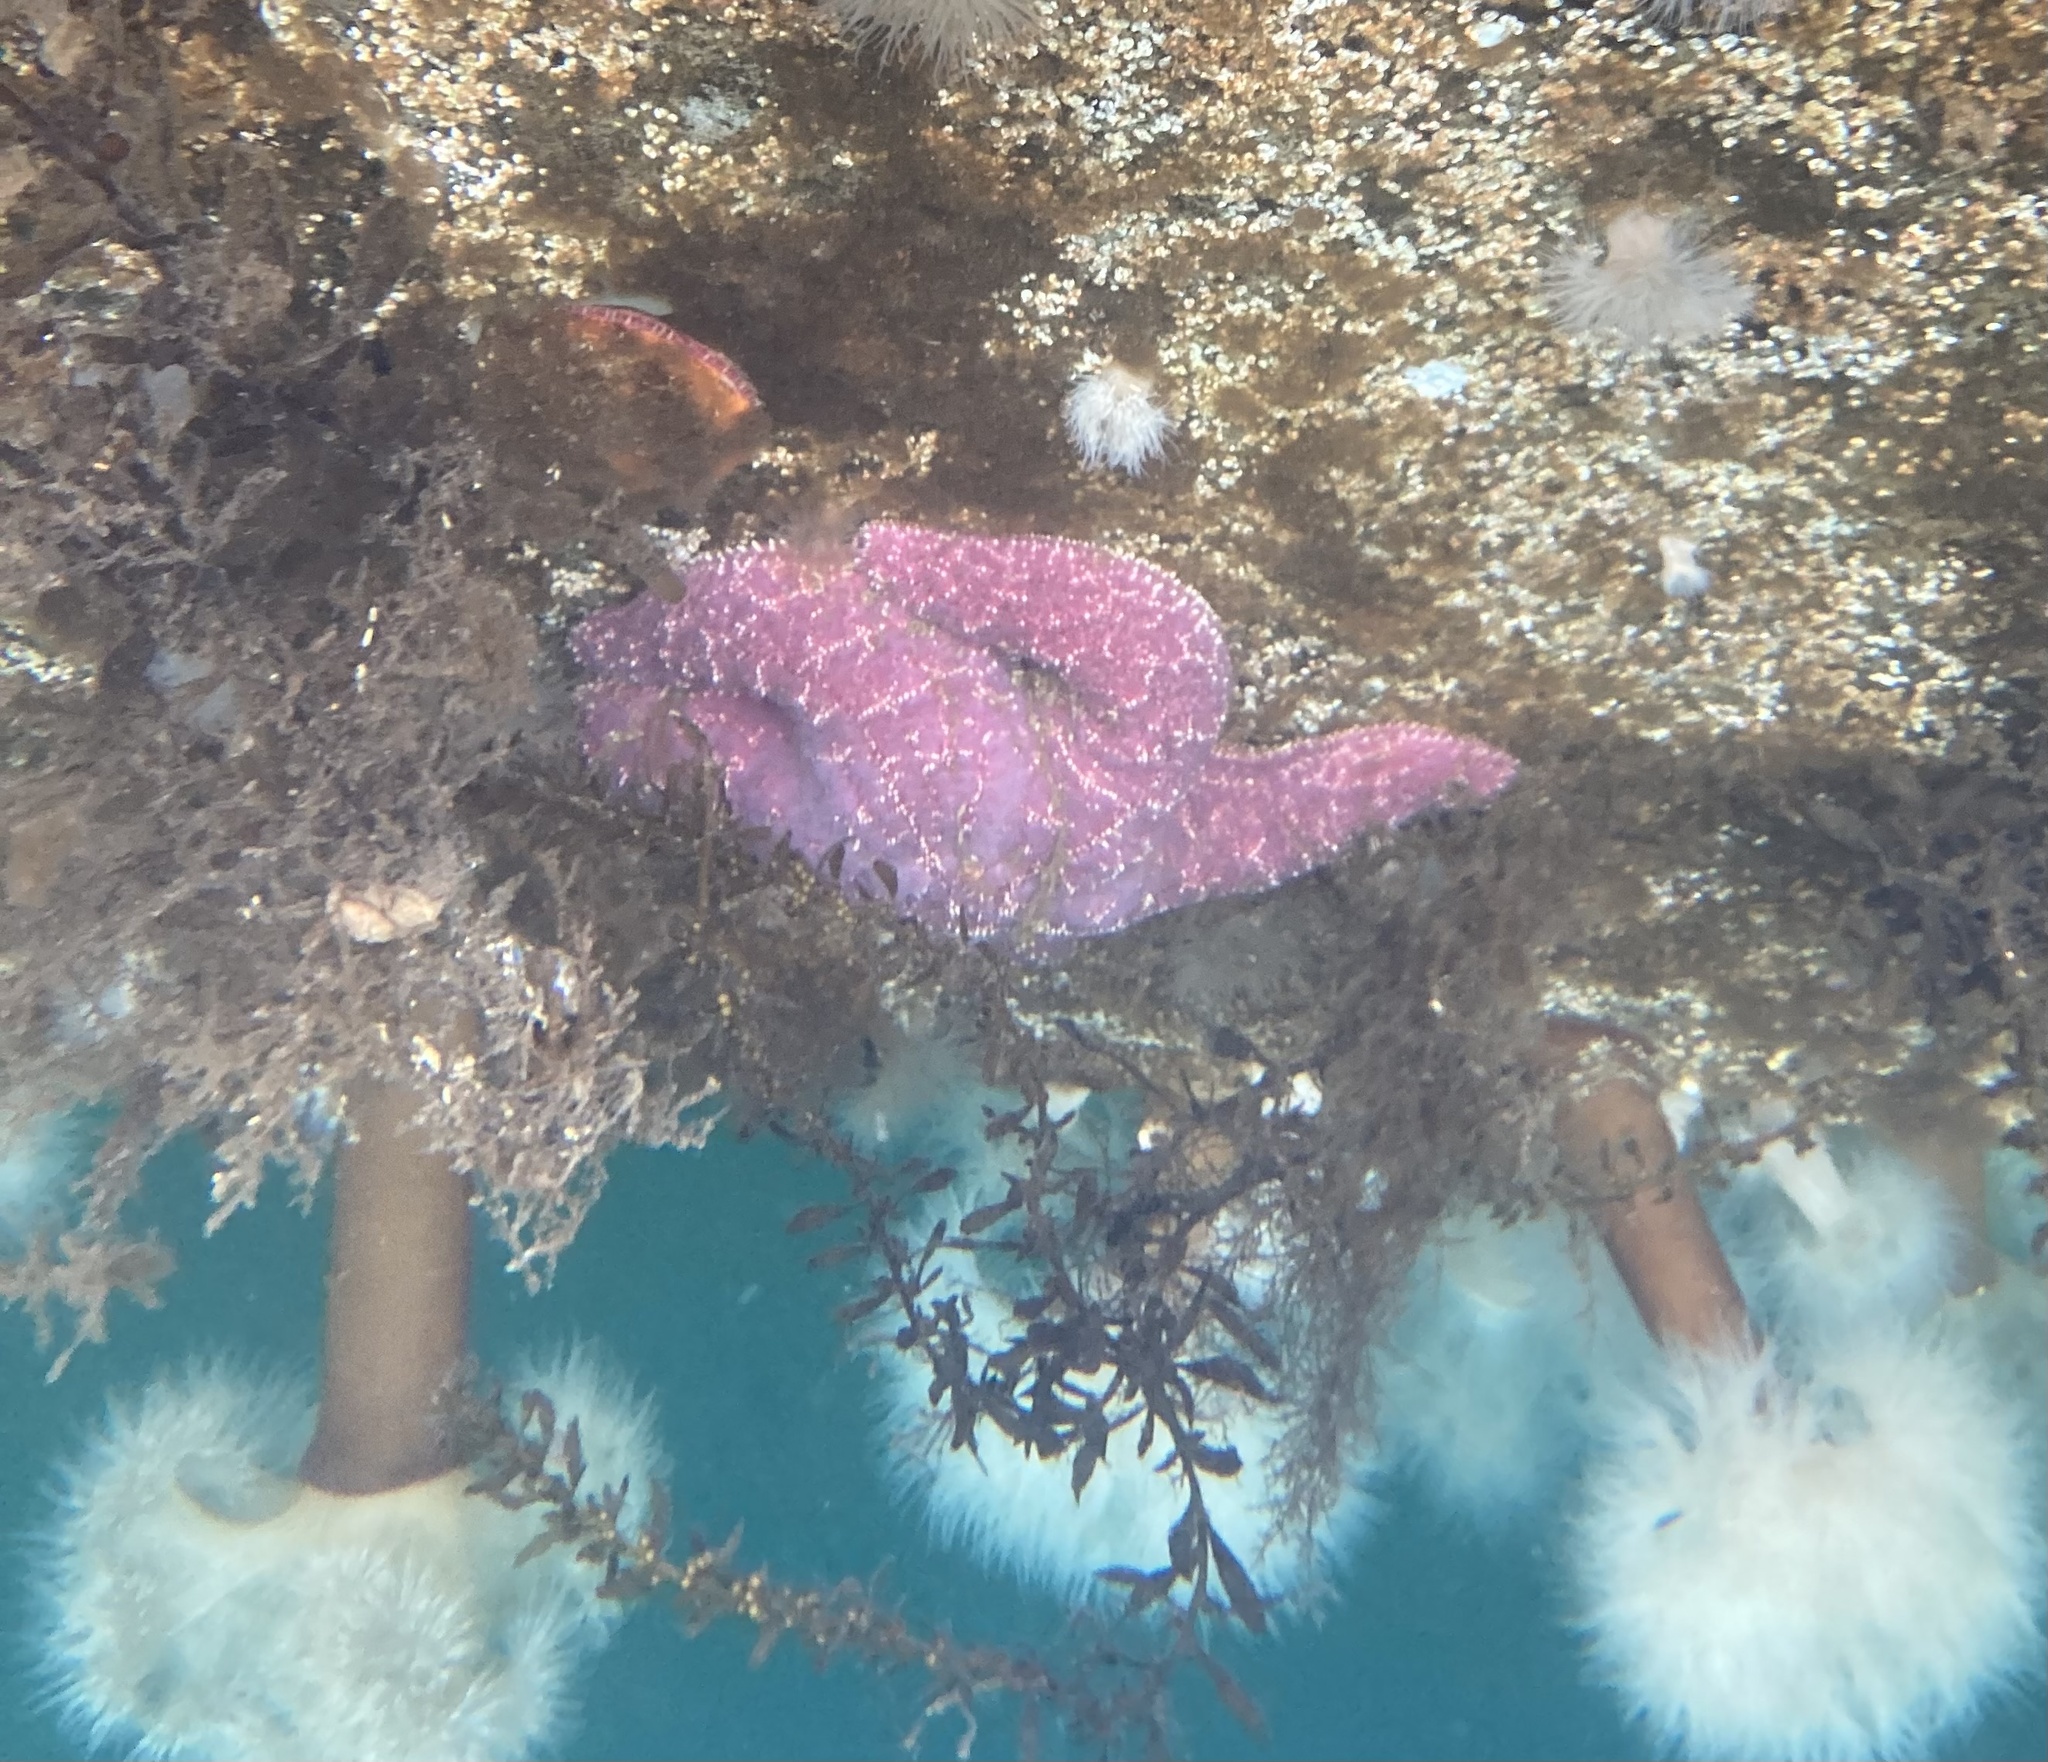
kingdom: Animalia
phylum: Echinodermata
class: Asteroidea
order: Forcipulatida
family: Asteriidae
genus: Pisaster
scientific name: Pisaster ochraceus
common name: Ochre stars
